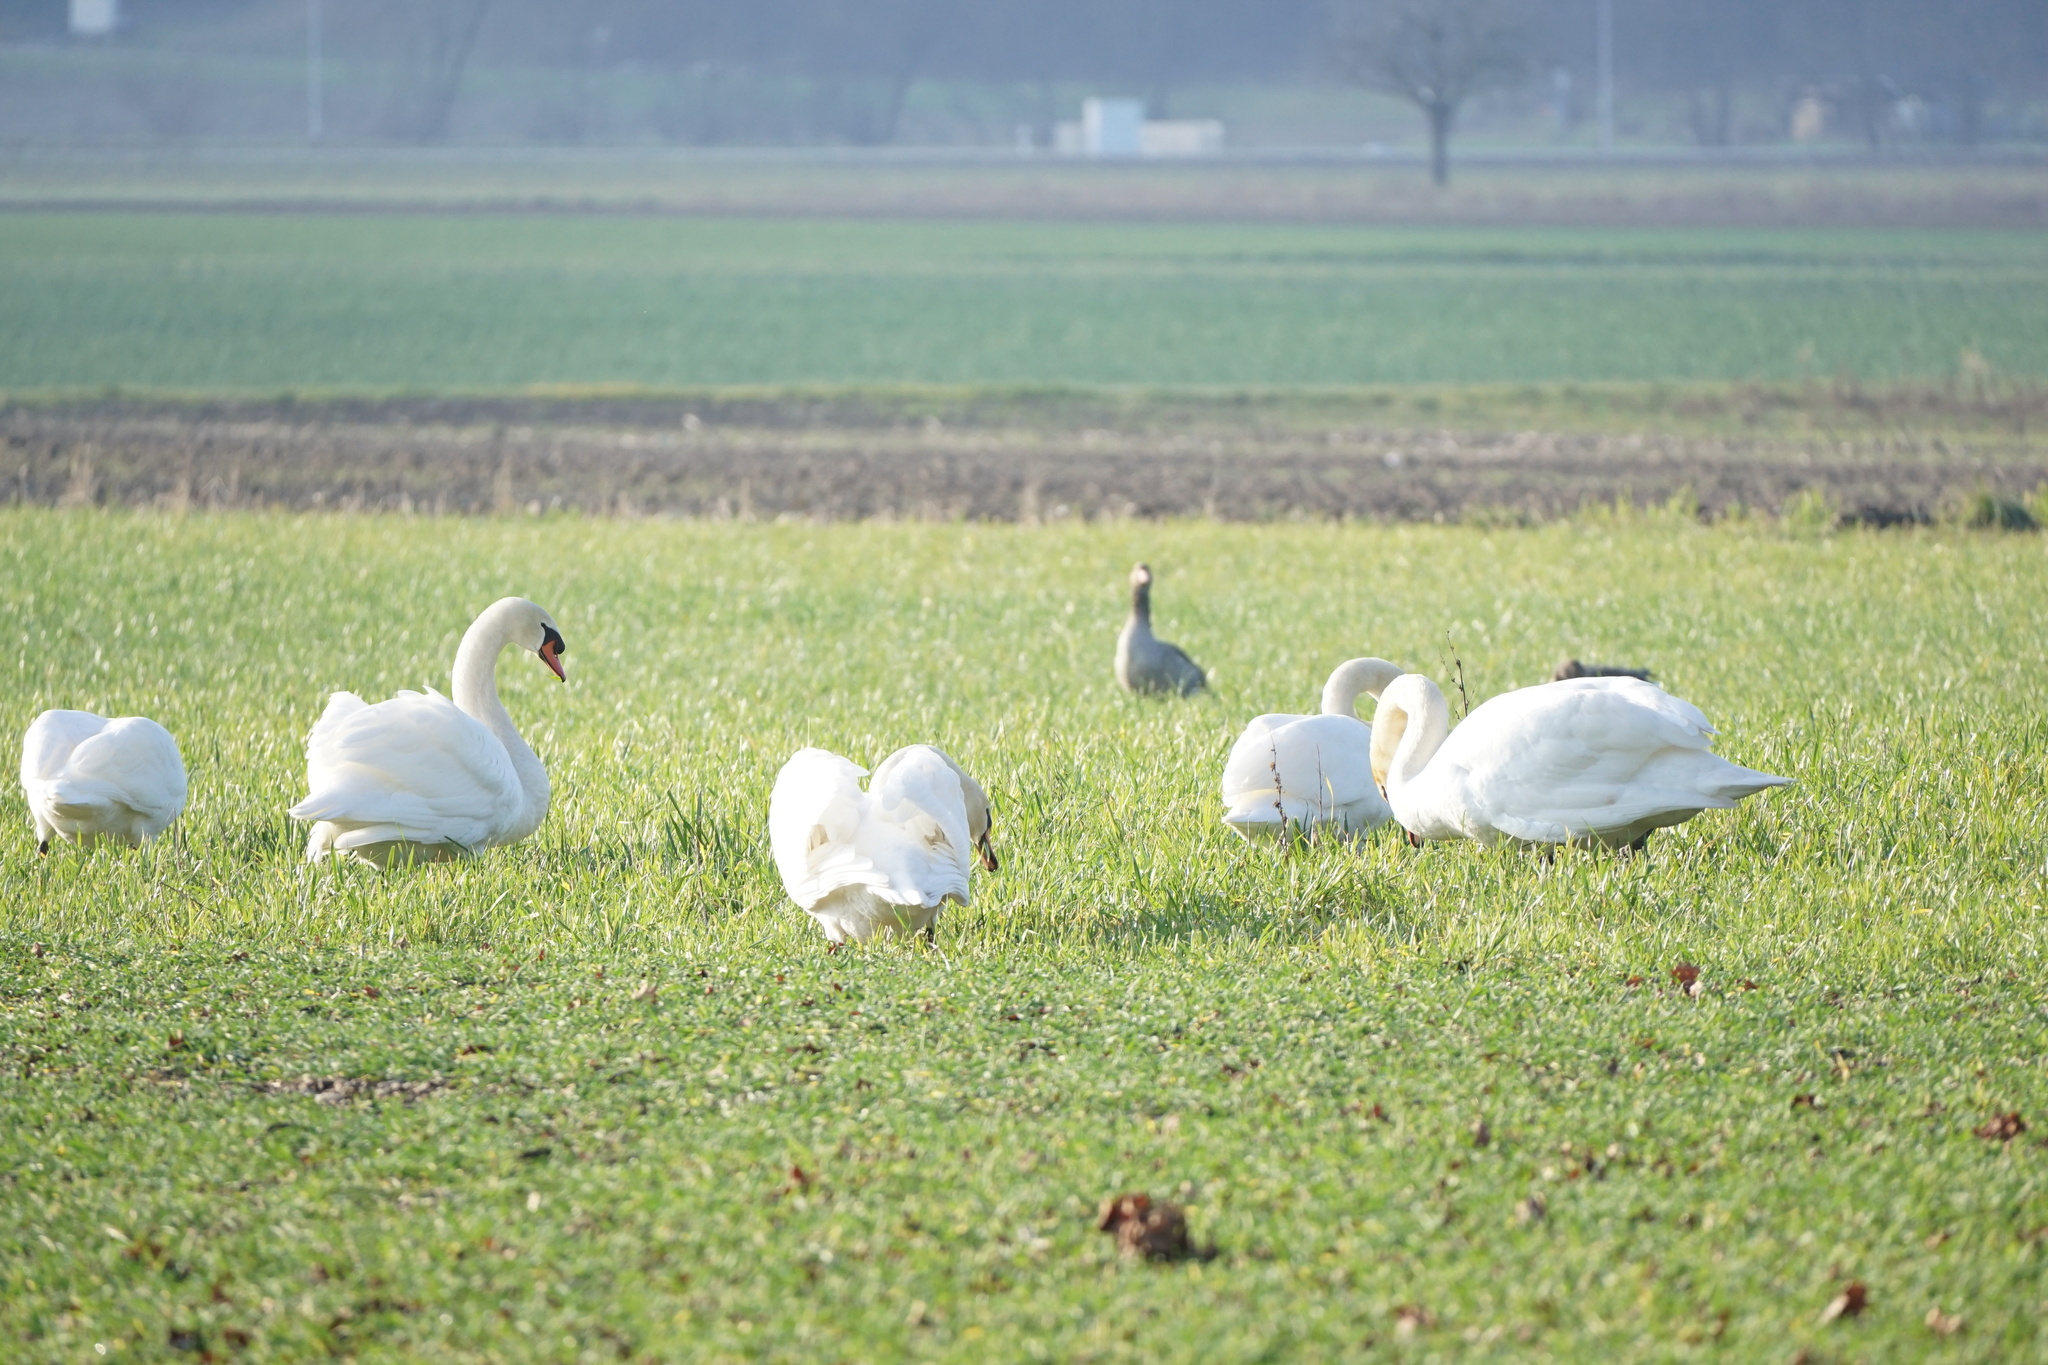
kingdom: Animalia
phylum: Chordata
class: Aves
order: Anseriformes
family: Anatidae
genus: Cygnus
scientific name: Cygnus olor
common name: Mute swan
